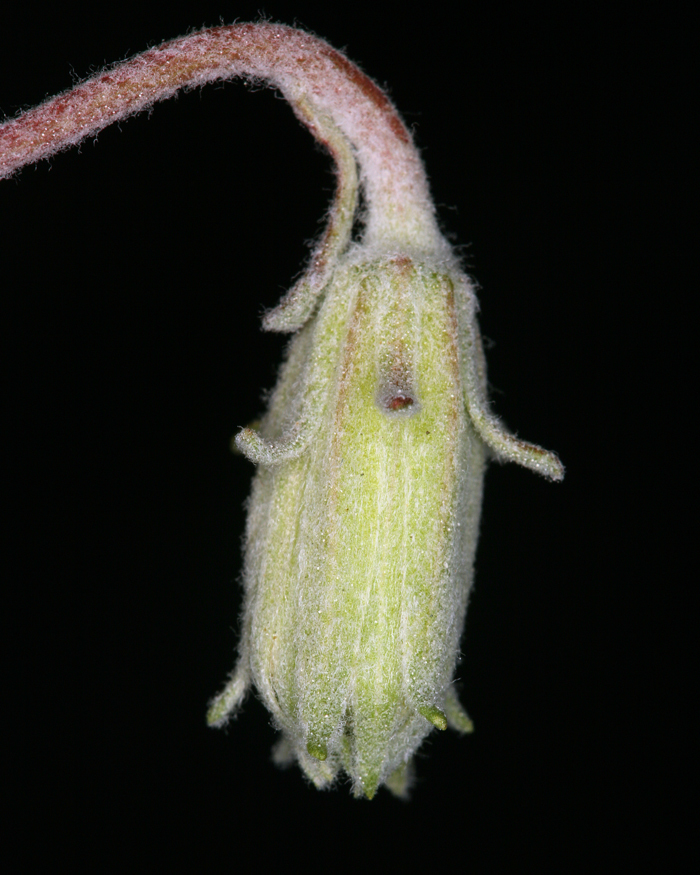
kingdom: Plantae
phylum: Tracheophyta
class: Magnoliopsida
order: Asterales
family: Asteraceae
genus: Chaenactis
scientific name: Chaenactis macrantha
